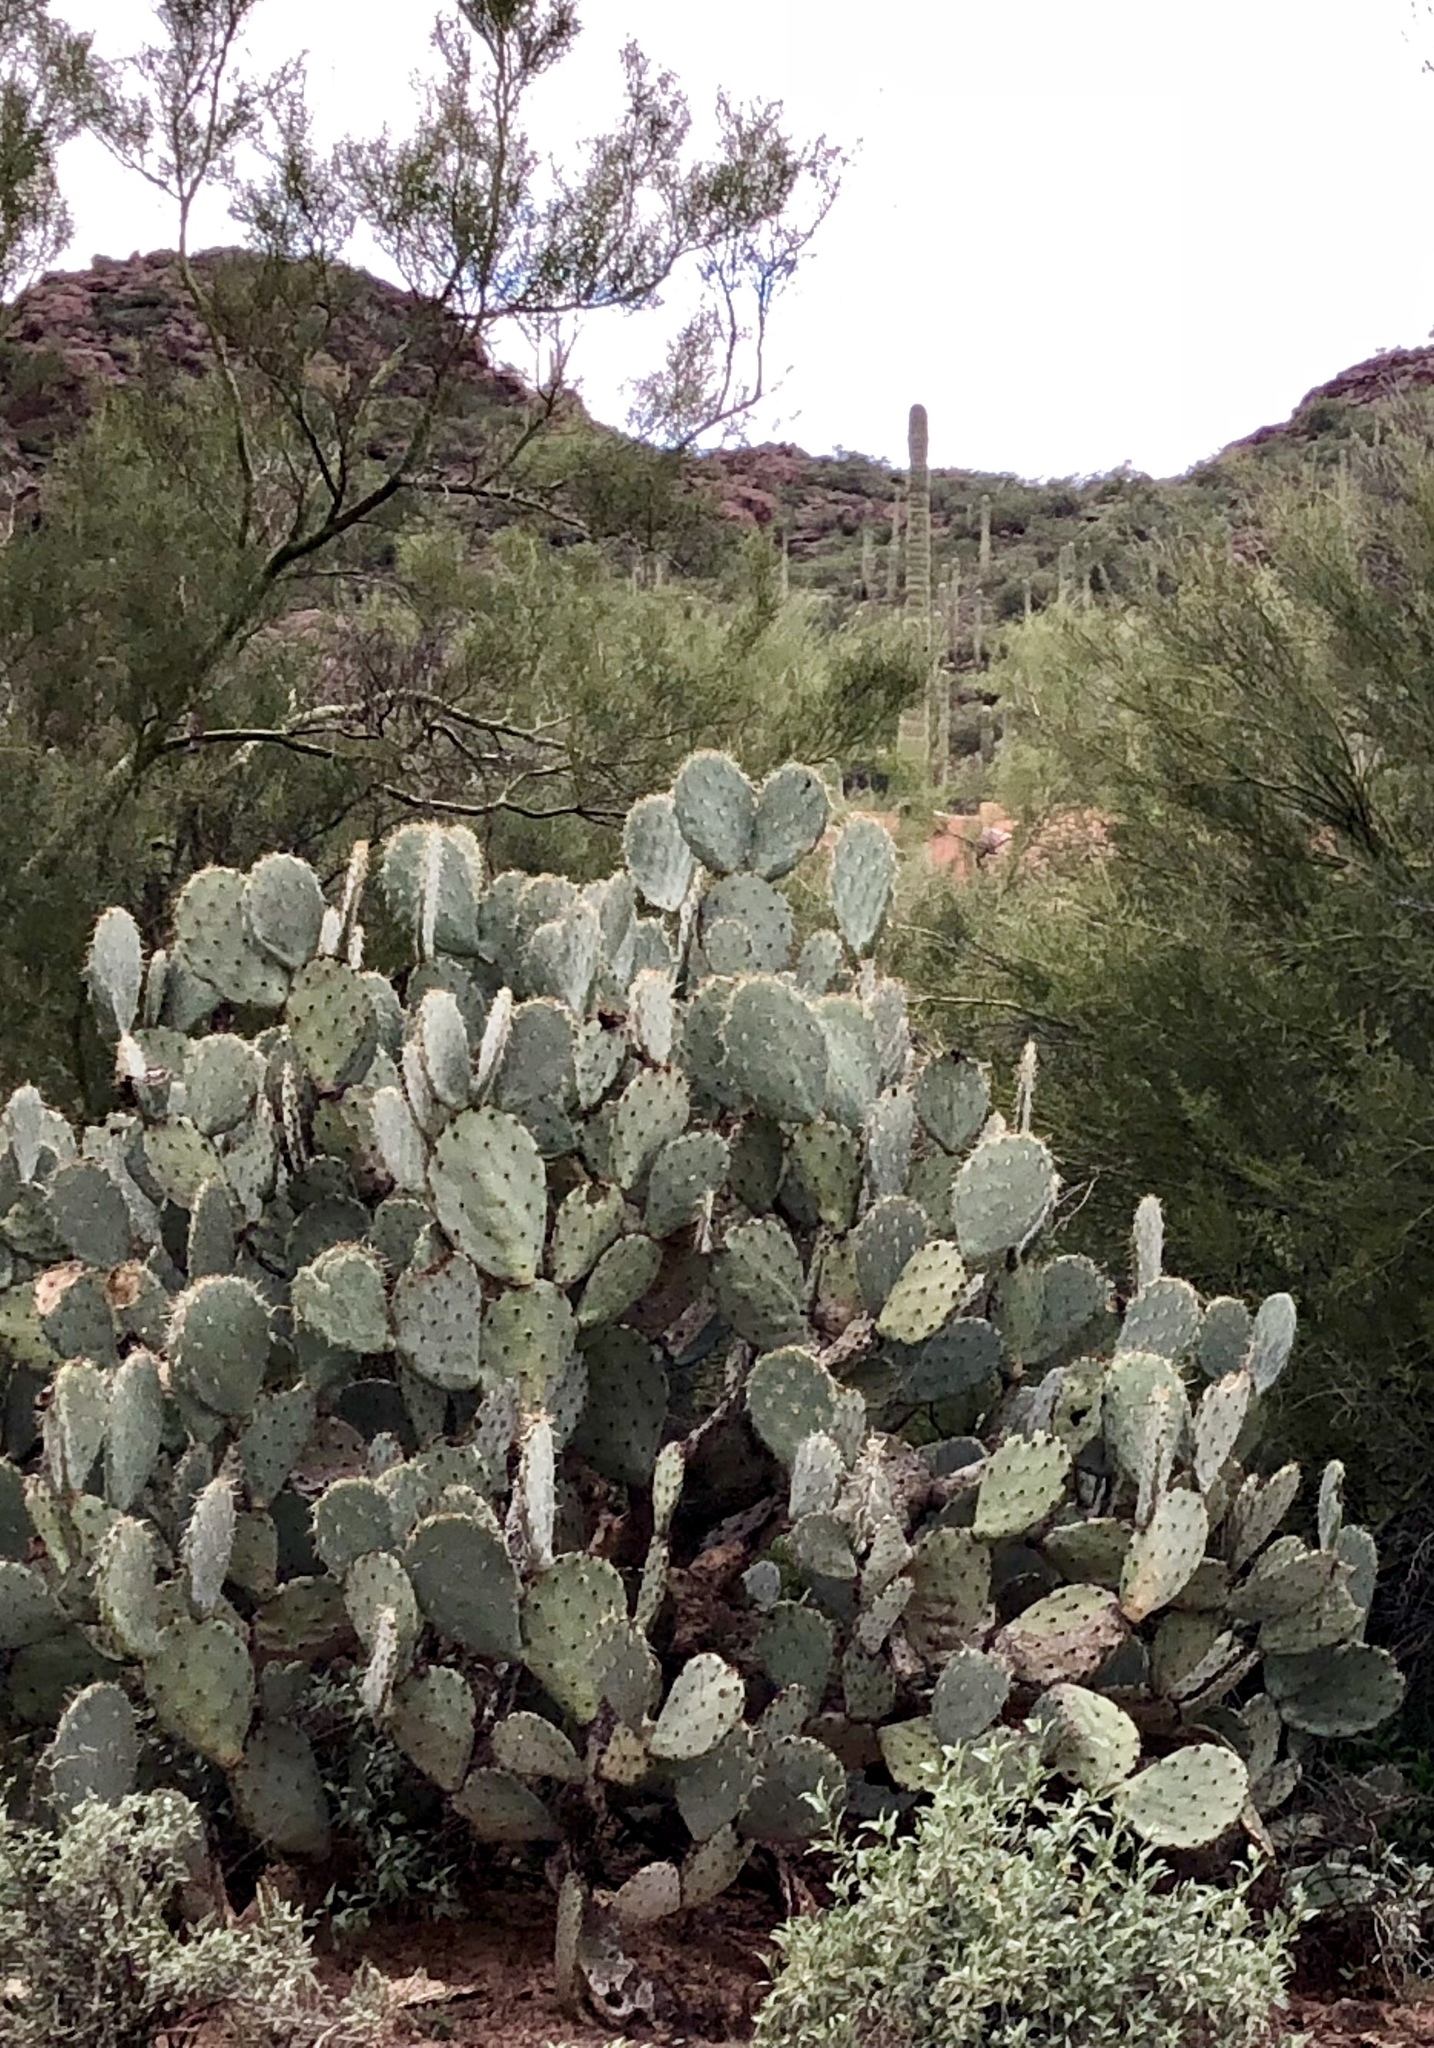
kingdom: Plantae
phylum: Tracheophyta
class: Magnoliopsida
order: Caryophyllales
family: Cactaceae
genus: Opuntia
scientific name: Opuntia engelmannii
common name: Cactus-apple
